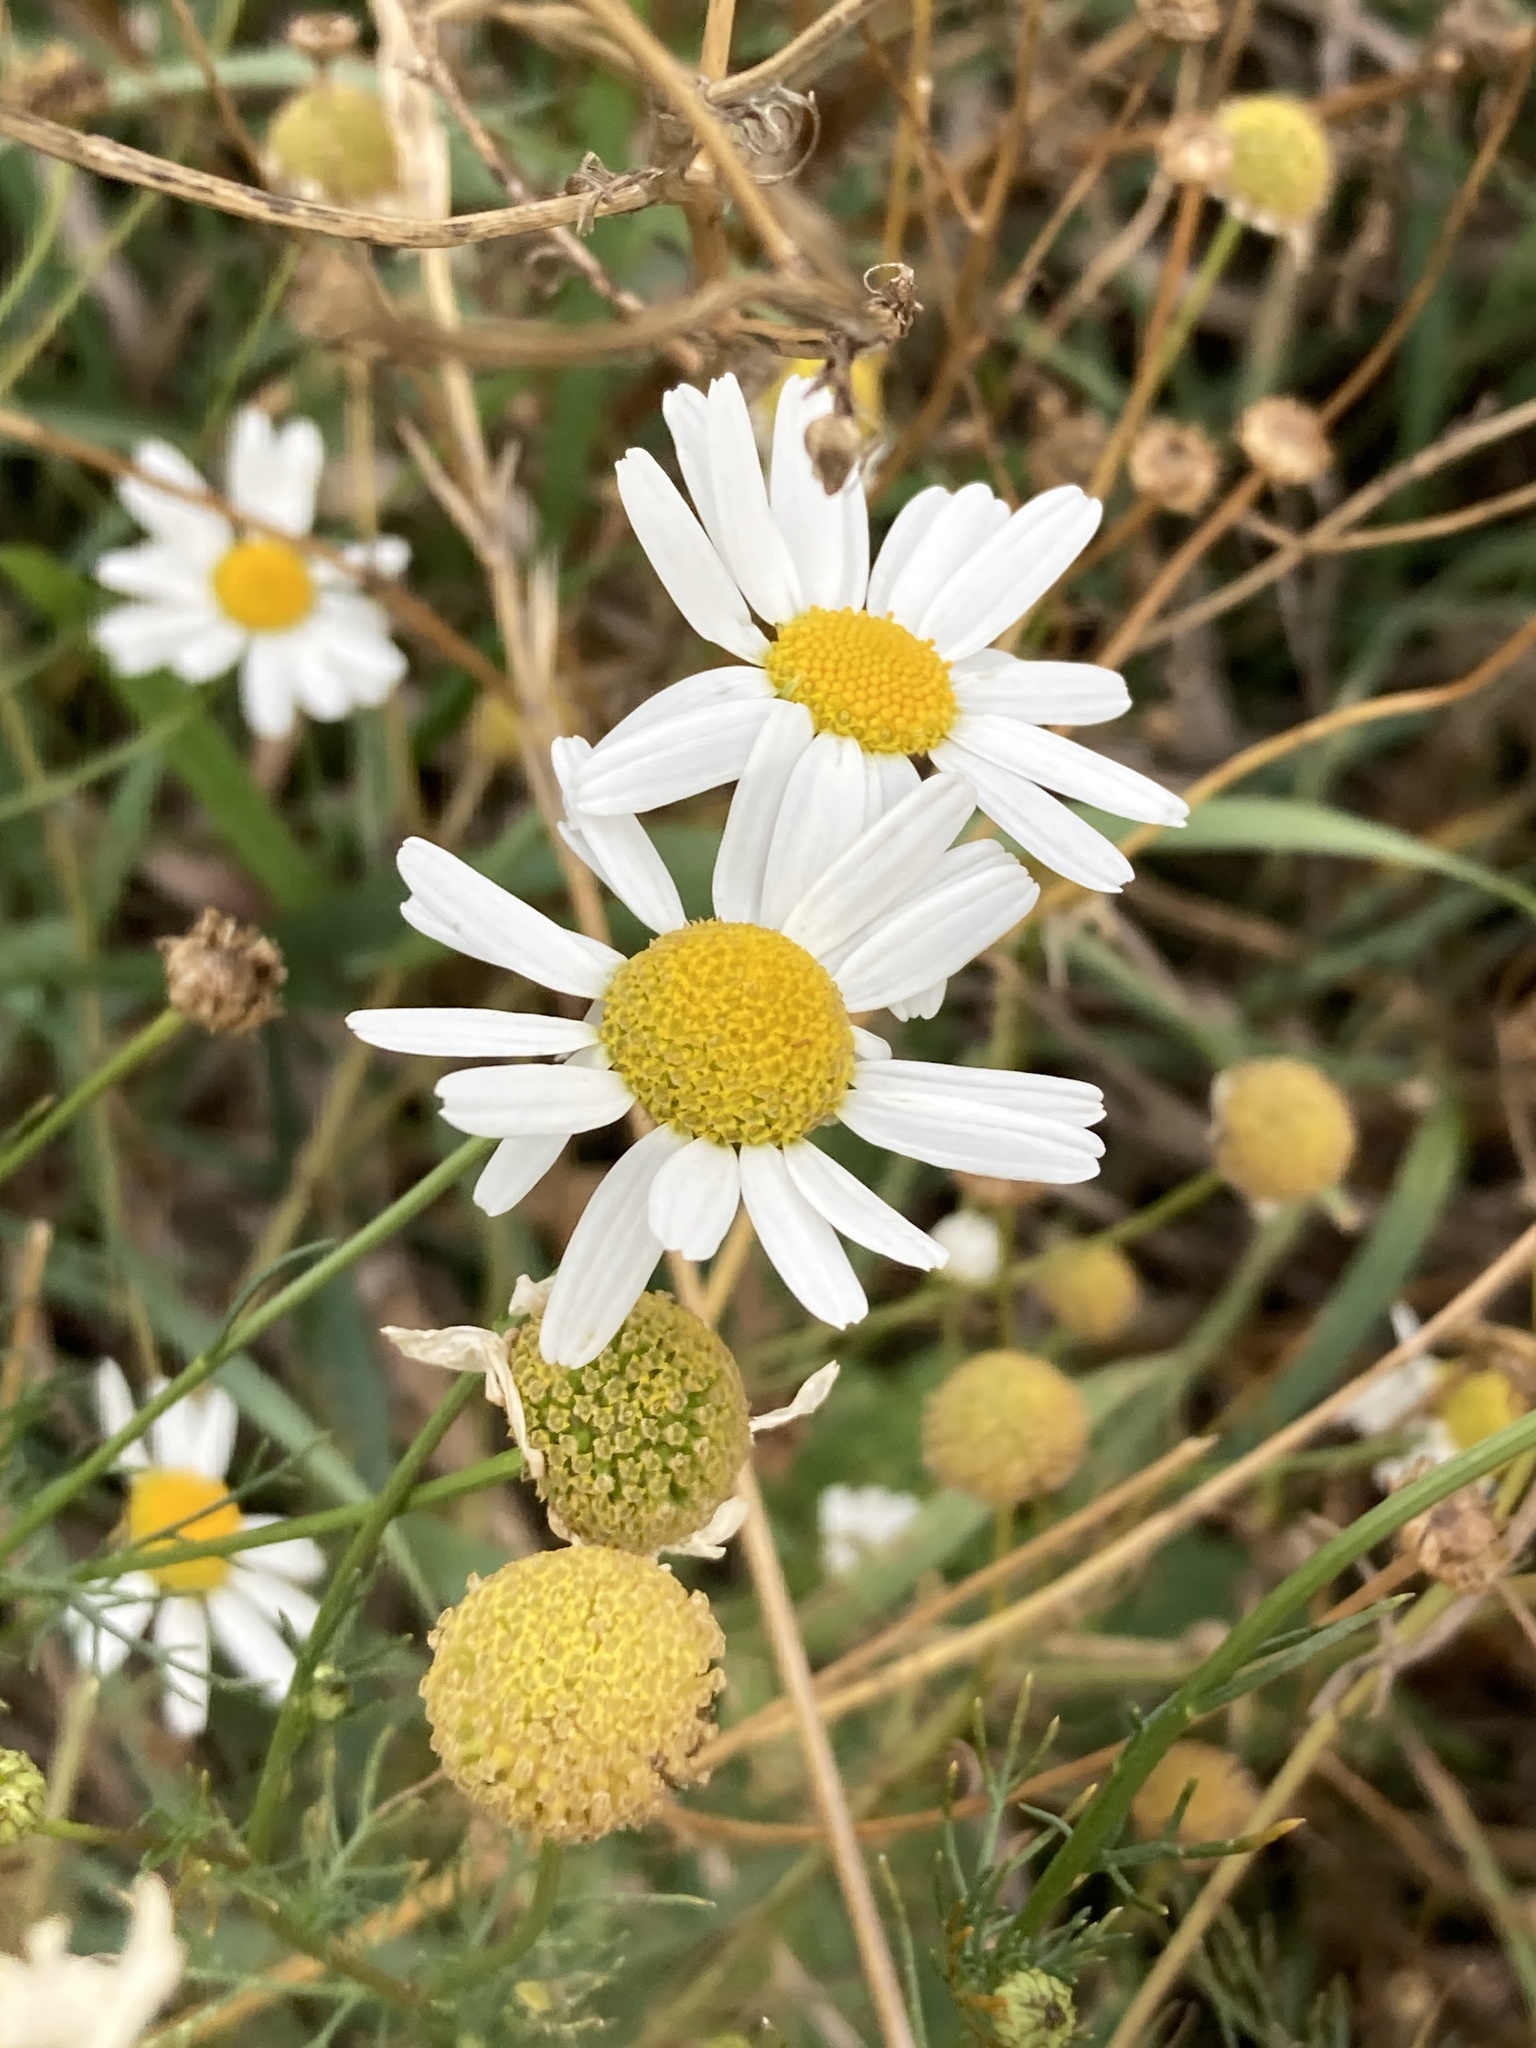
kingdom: Plantae
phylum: Tracheophyta
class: Magnoliopsida
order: Asterales
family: Asteraceae
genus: Tripleurospermum
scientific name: Tripleurospermum inodorum
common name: Scentless mayweed
